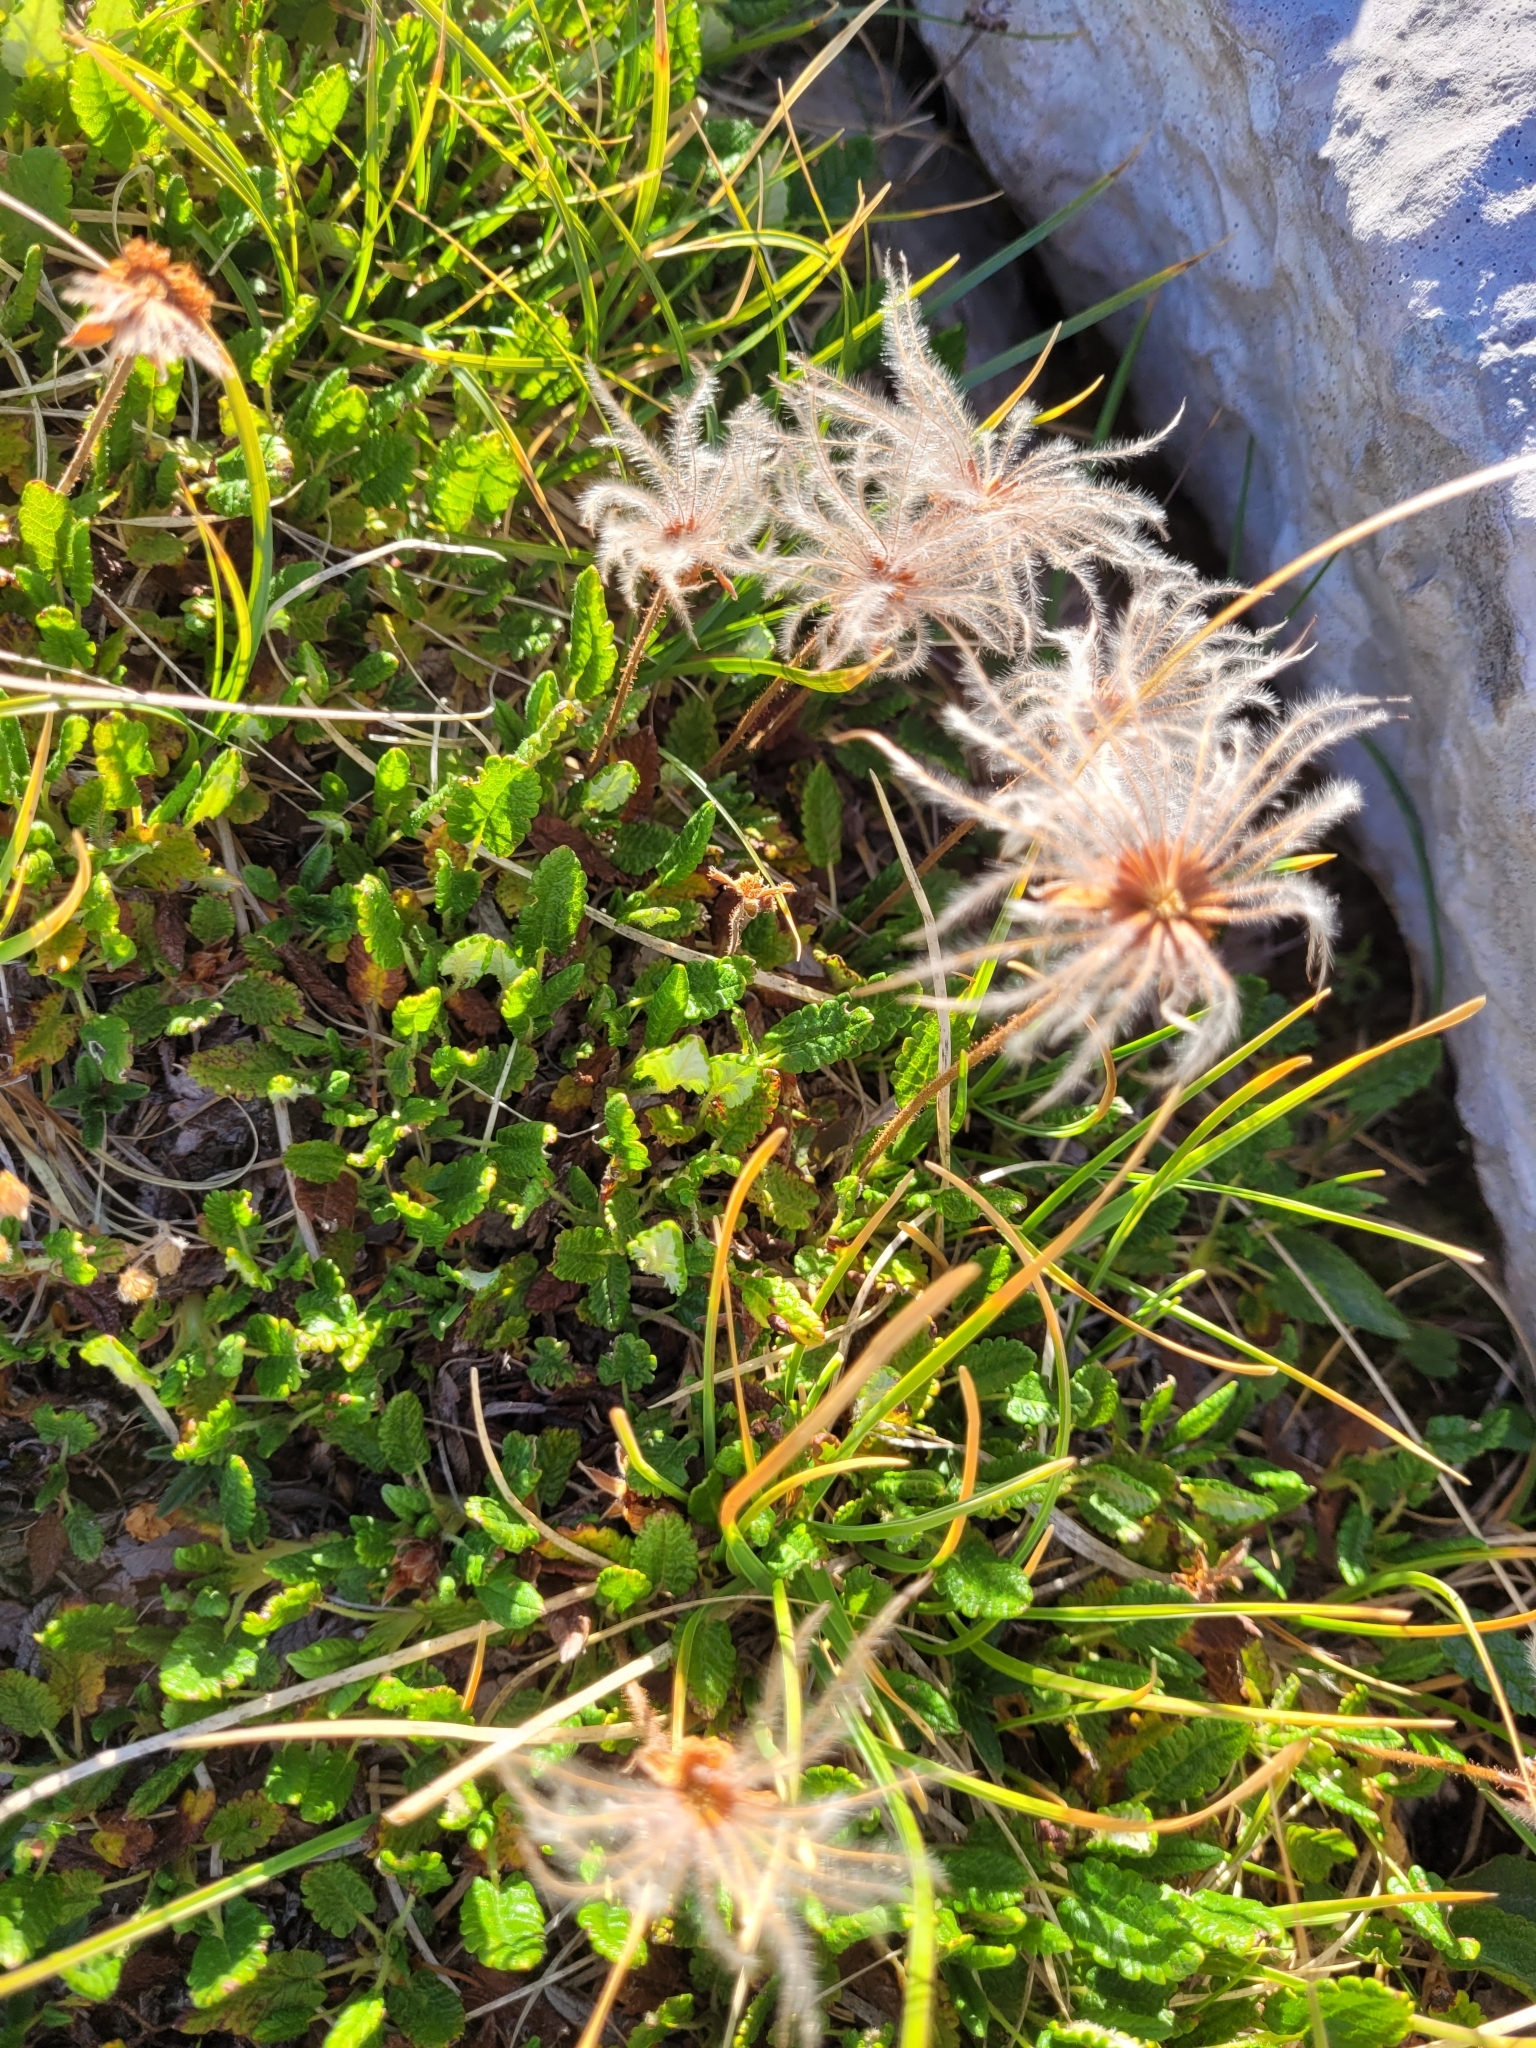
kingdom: Plantae
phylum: Tracheophyta
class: Magnoliopsida
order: Rosales
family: Rosaceae
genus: Dryas
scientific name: Dryas octopetala
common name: Eight-petal mountain-avens
